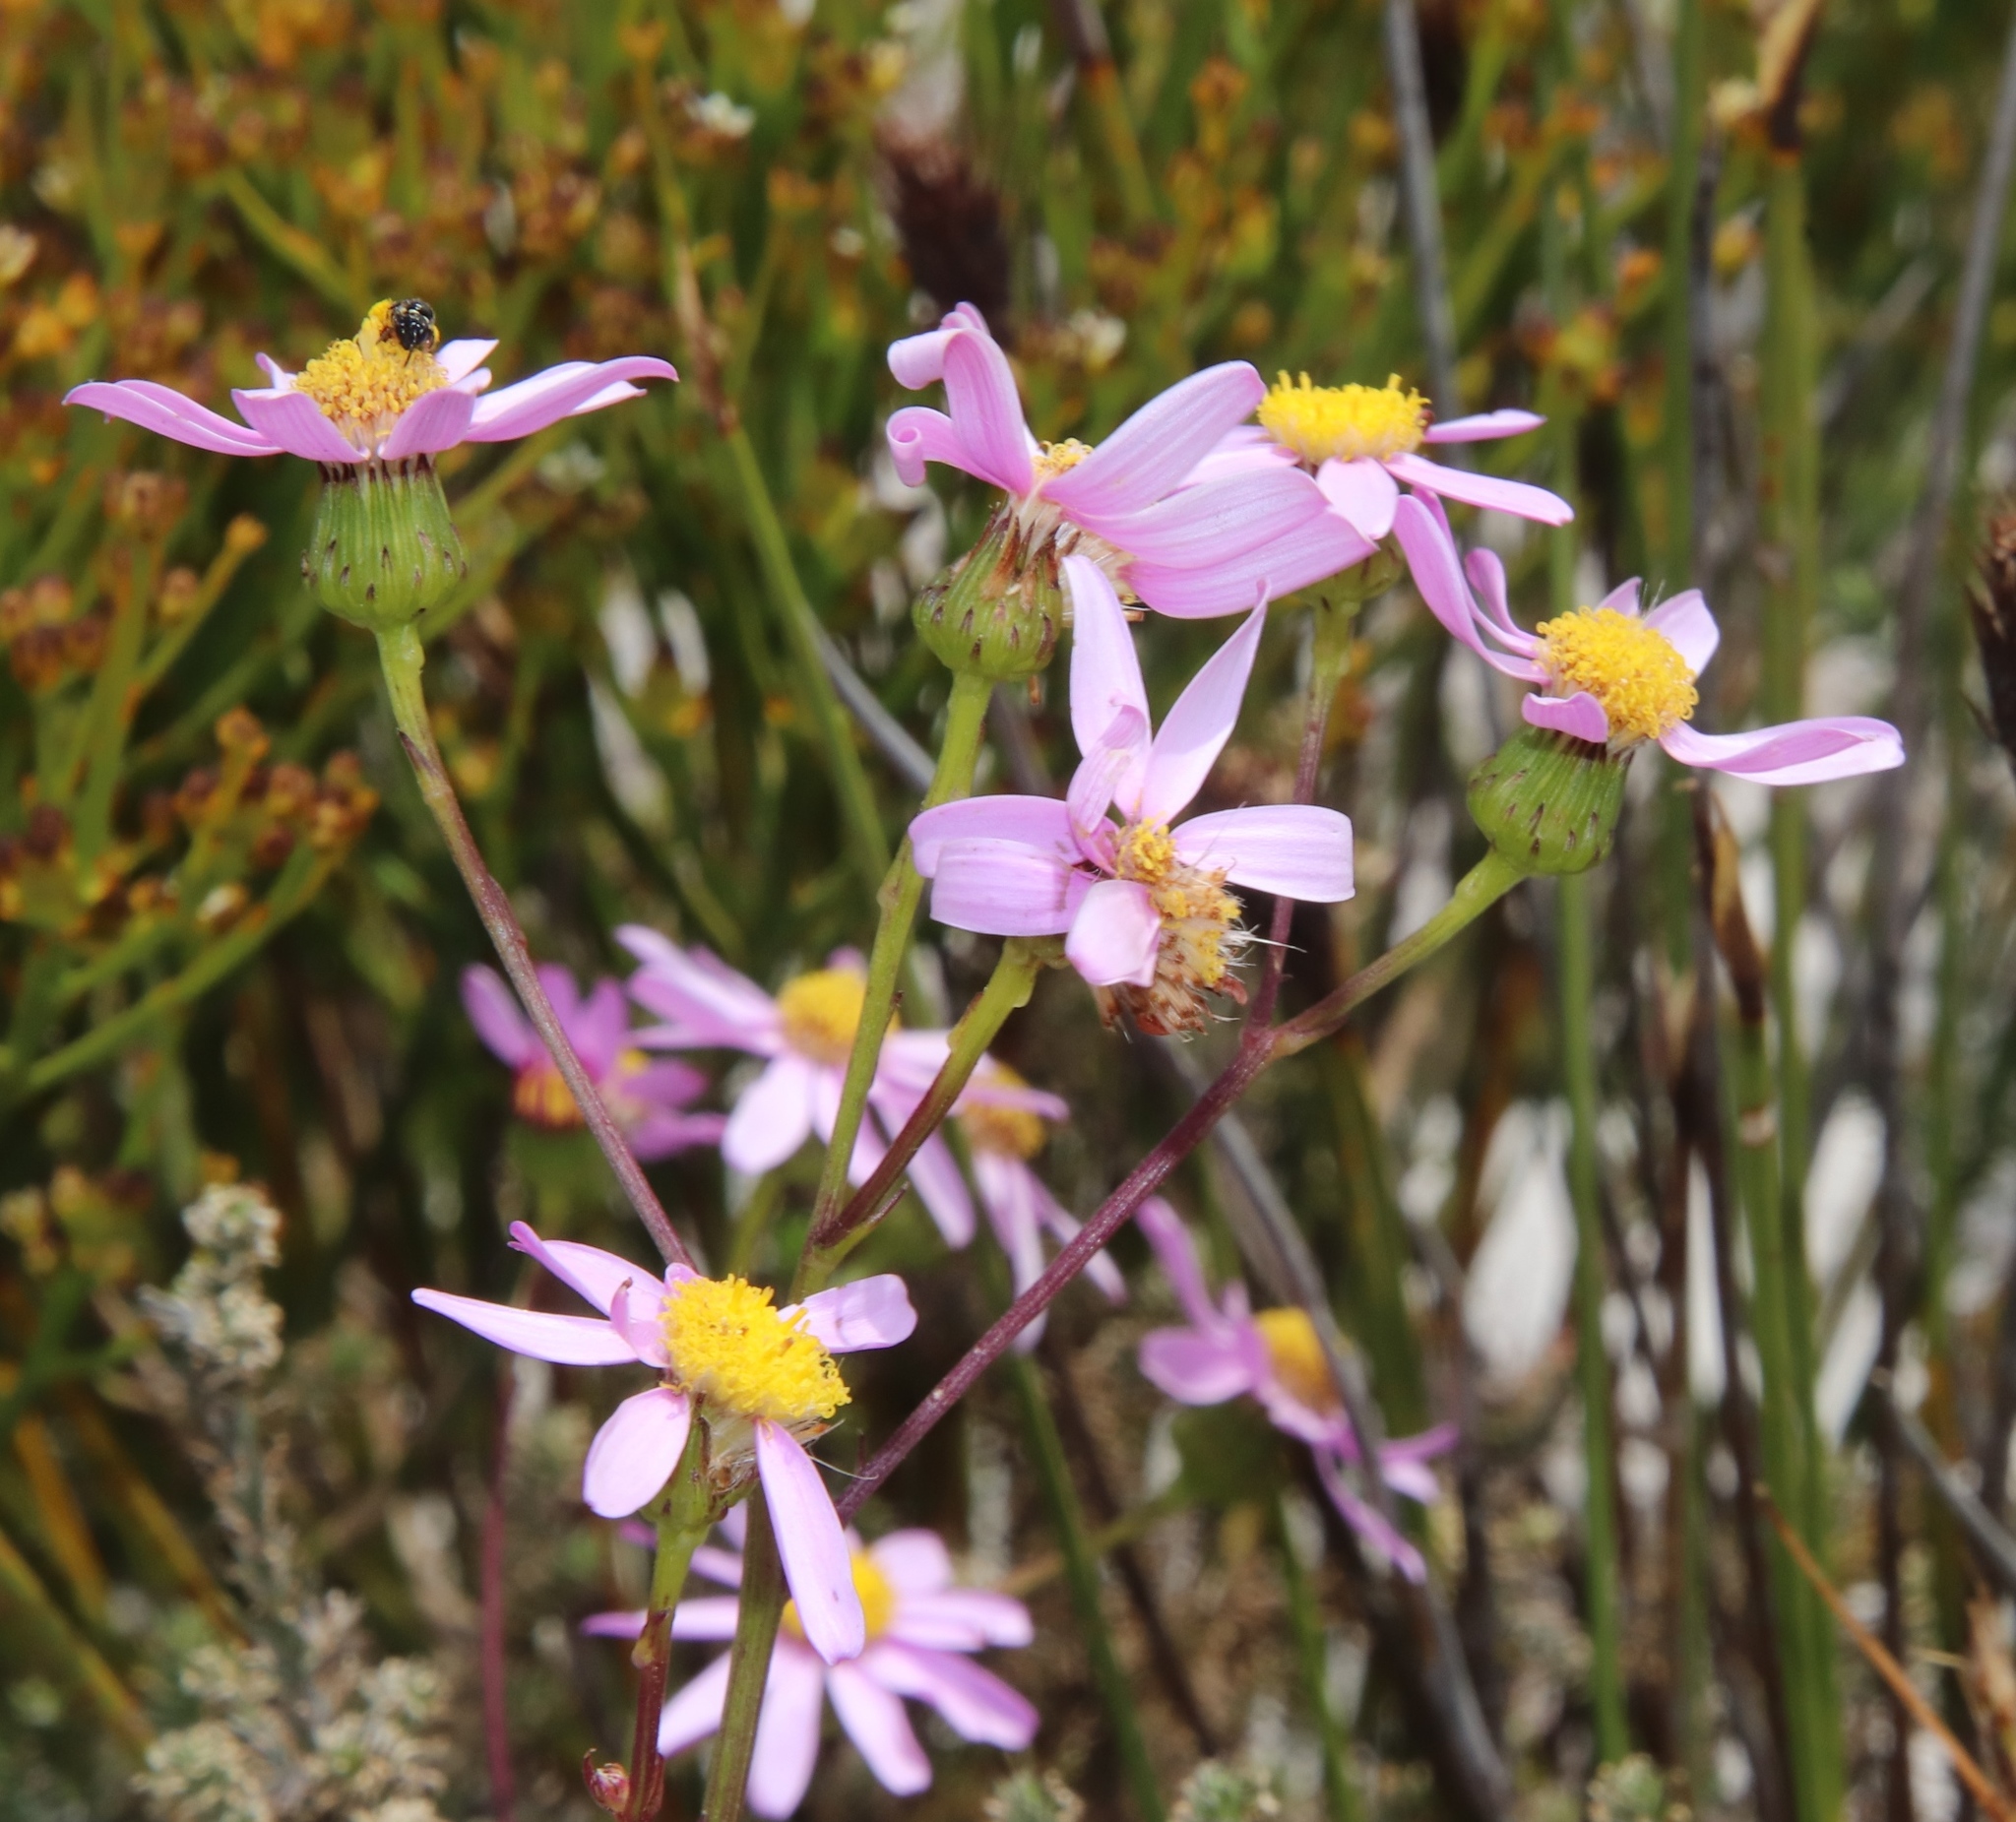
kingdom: Plantae
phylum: Tracheophyta
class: Magnoliopsida
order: Asterales
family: Asteraceae
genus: Senecio
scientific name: Senecio umbellatus
